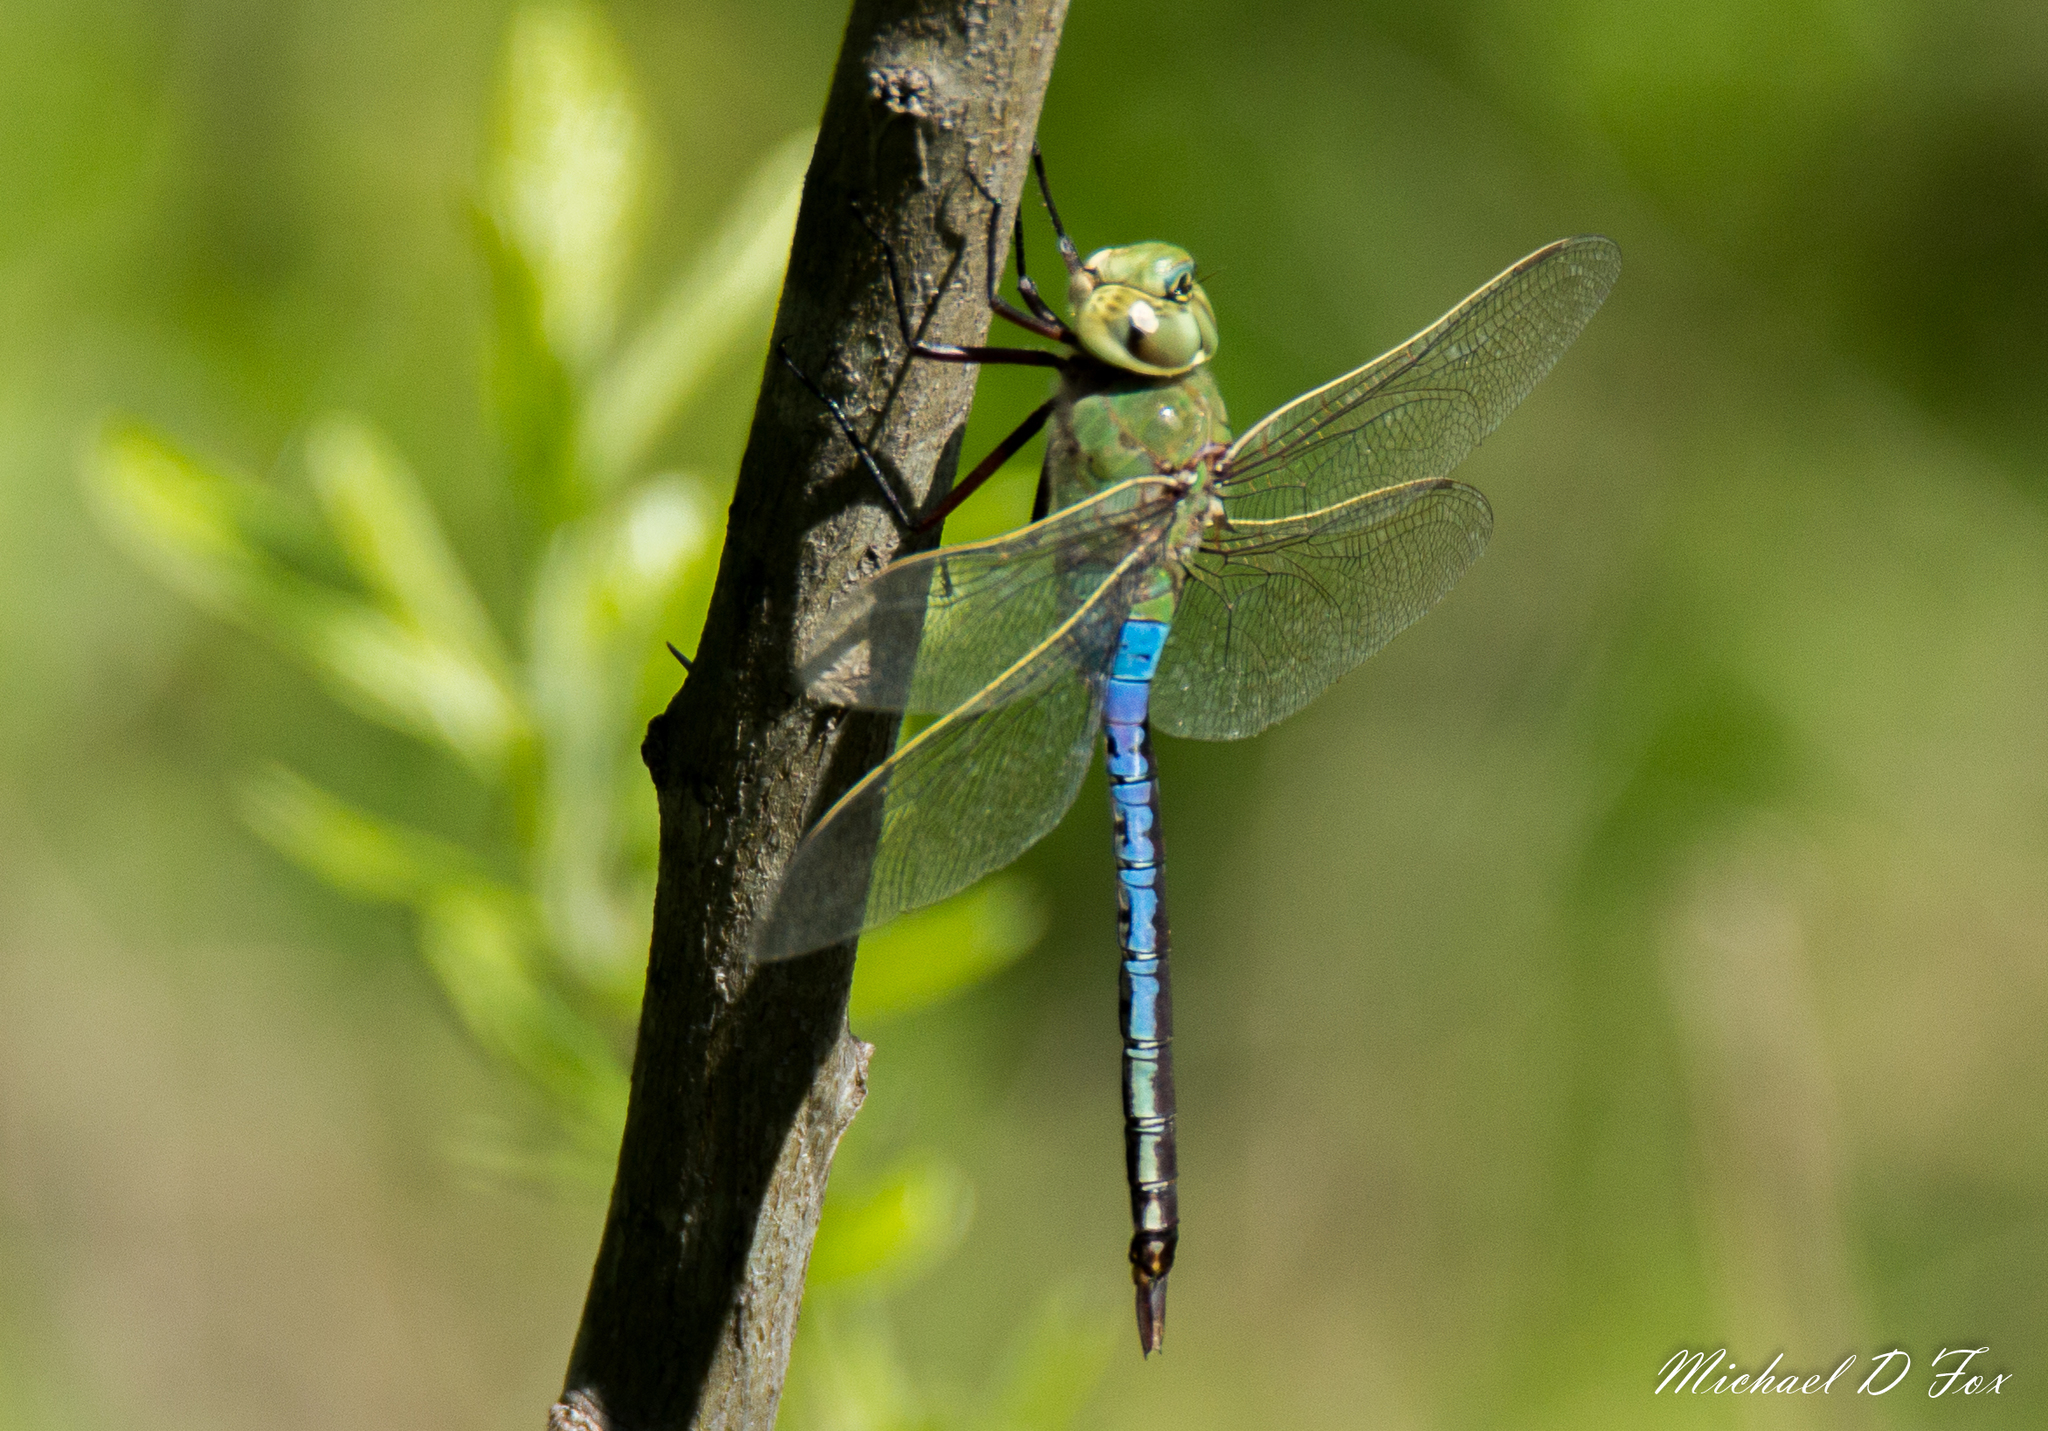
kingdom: Animalia
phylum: Arthropoda
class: Insecta
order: Odonata
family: Aeshnidae
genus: Anax
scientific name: Anax junius
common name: Common green darner
